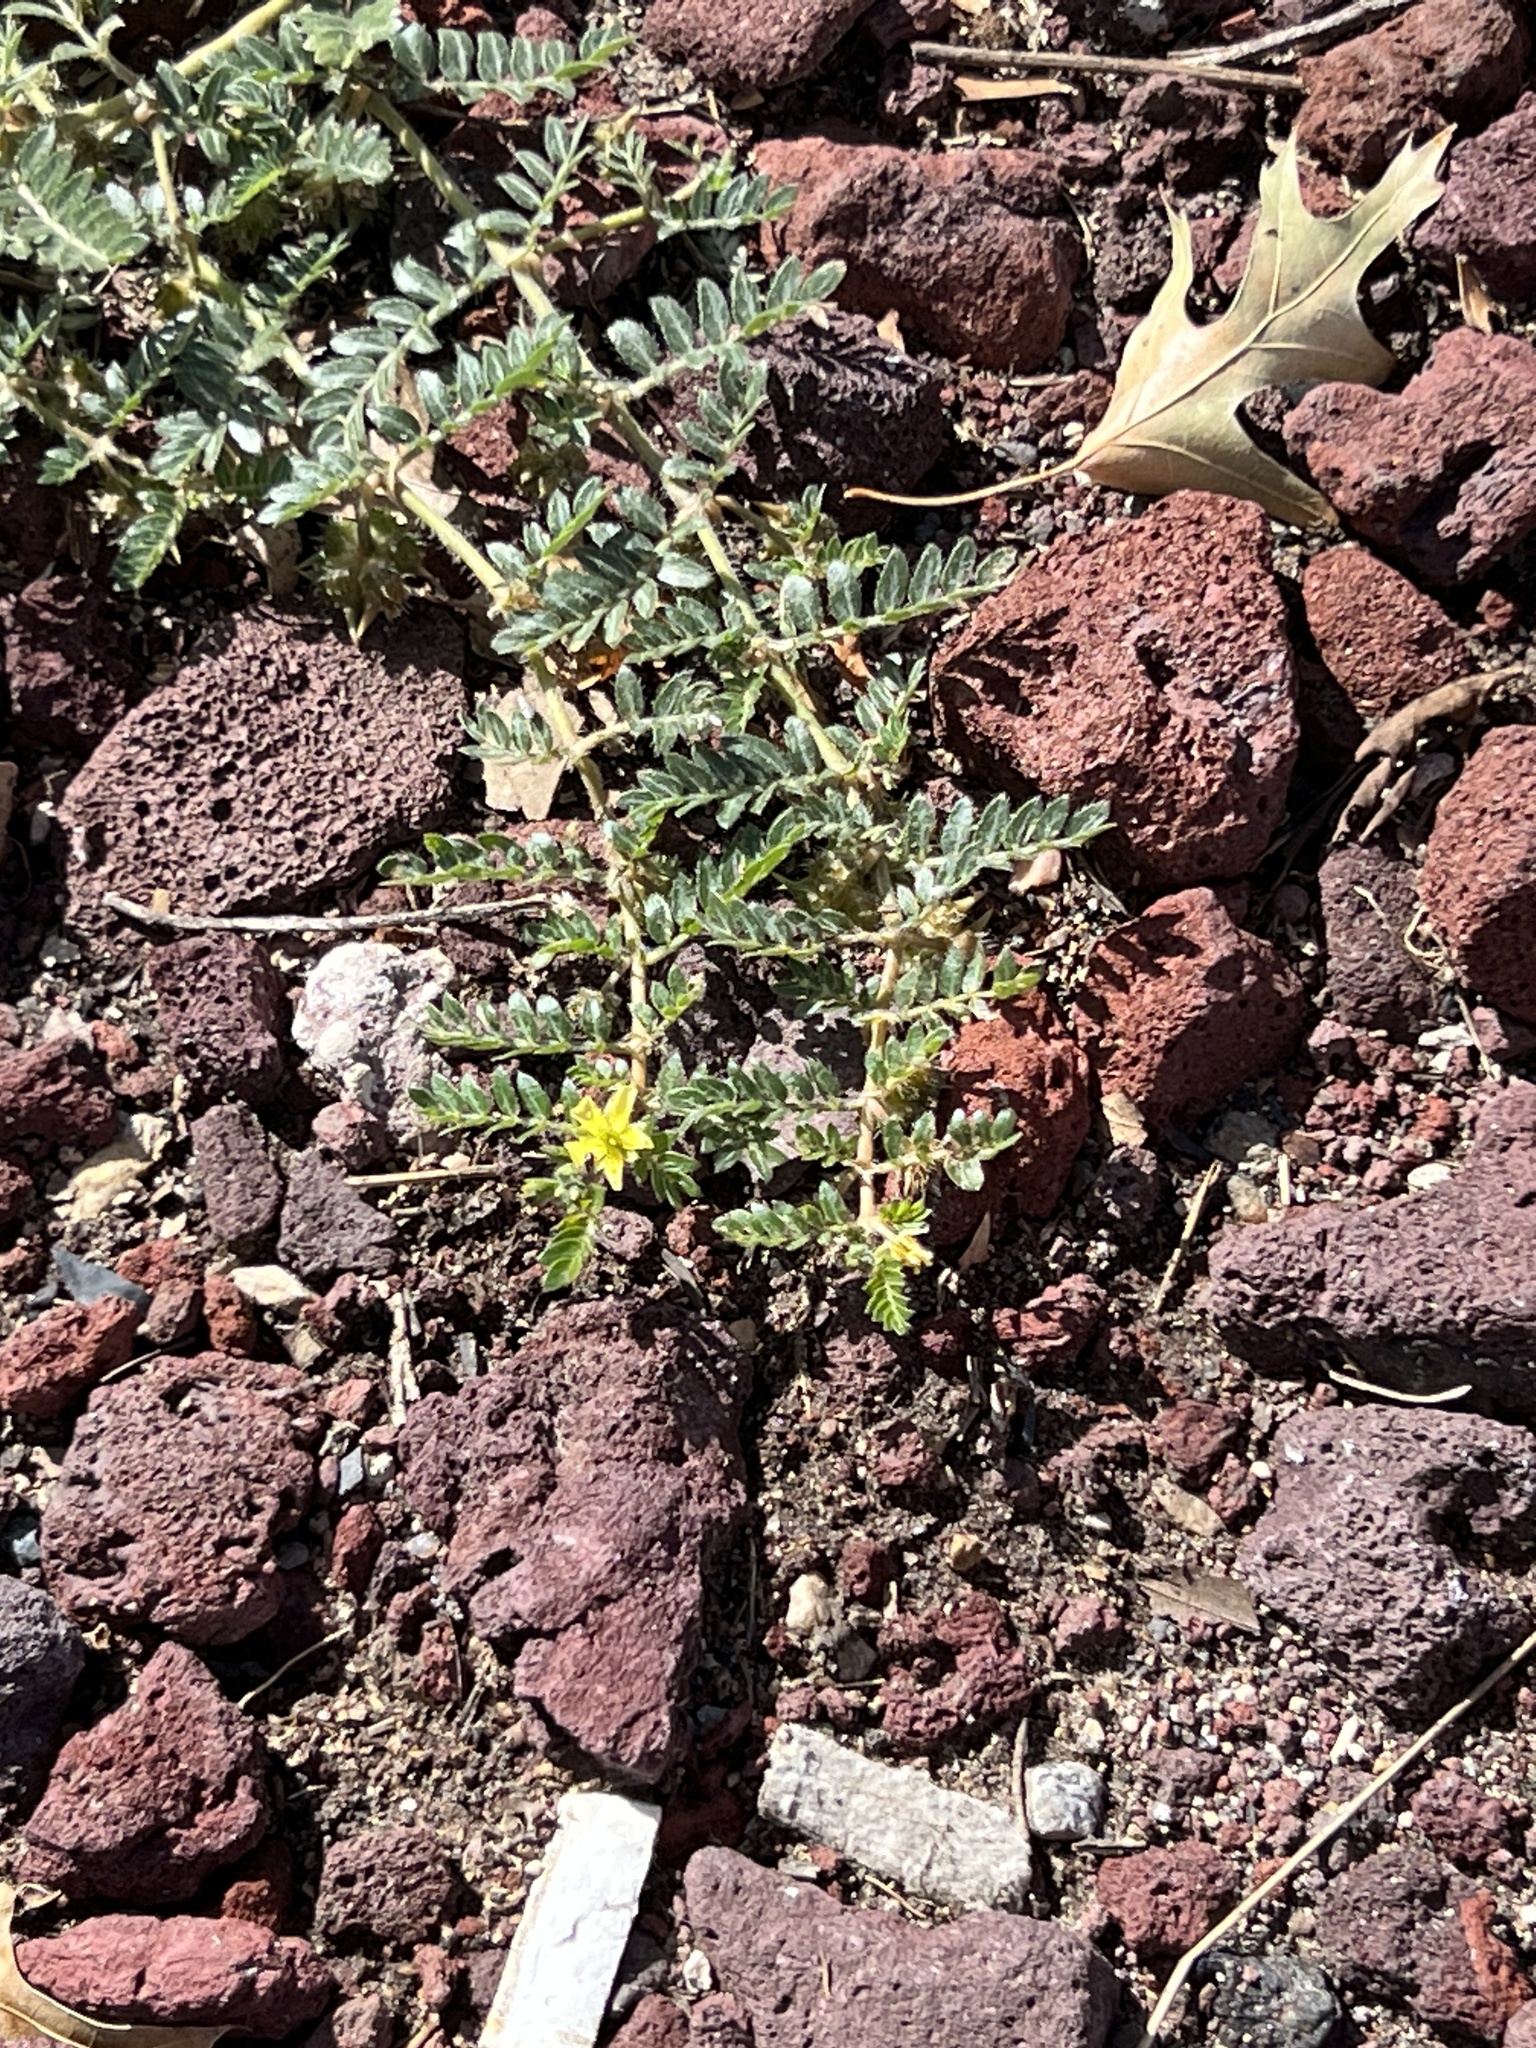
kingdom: Plantae
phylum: Tracheophyta
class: Magnoliopsida
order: Zygophyllales
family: Zygophyllaceae
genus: Tribulus
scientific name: Tribulus terrestris
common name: Puncturevine
